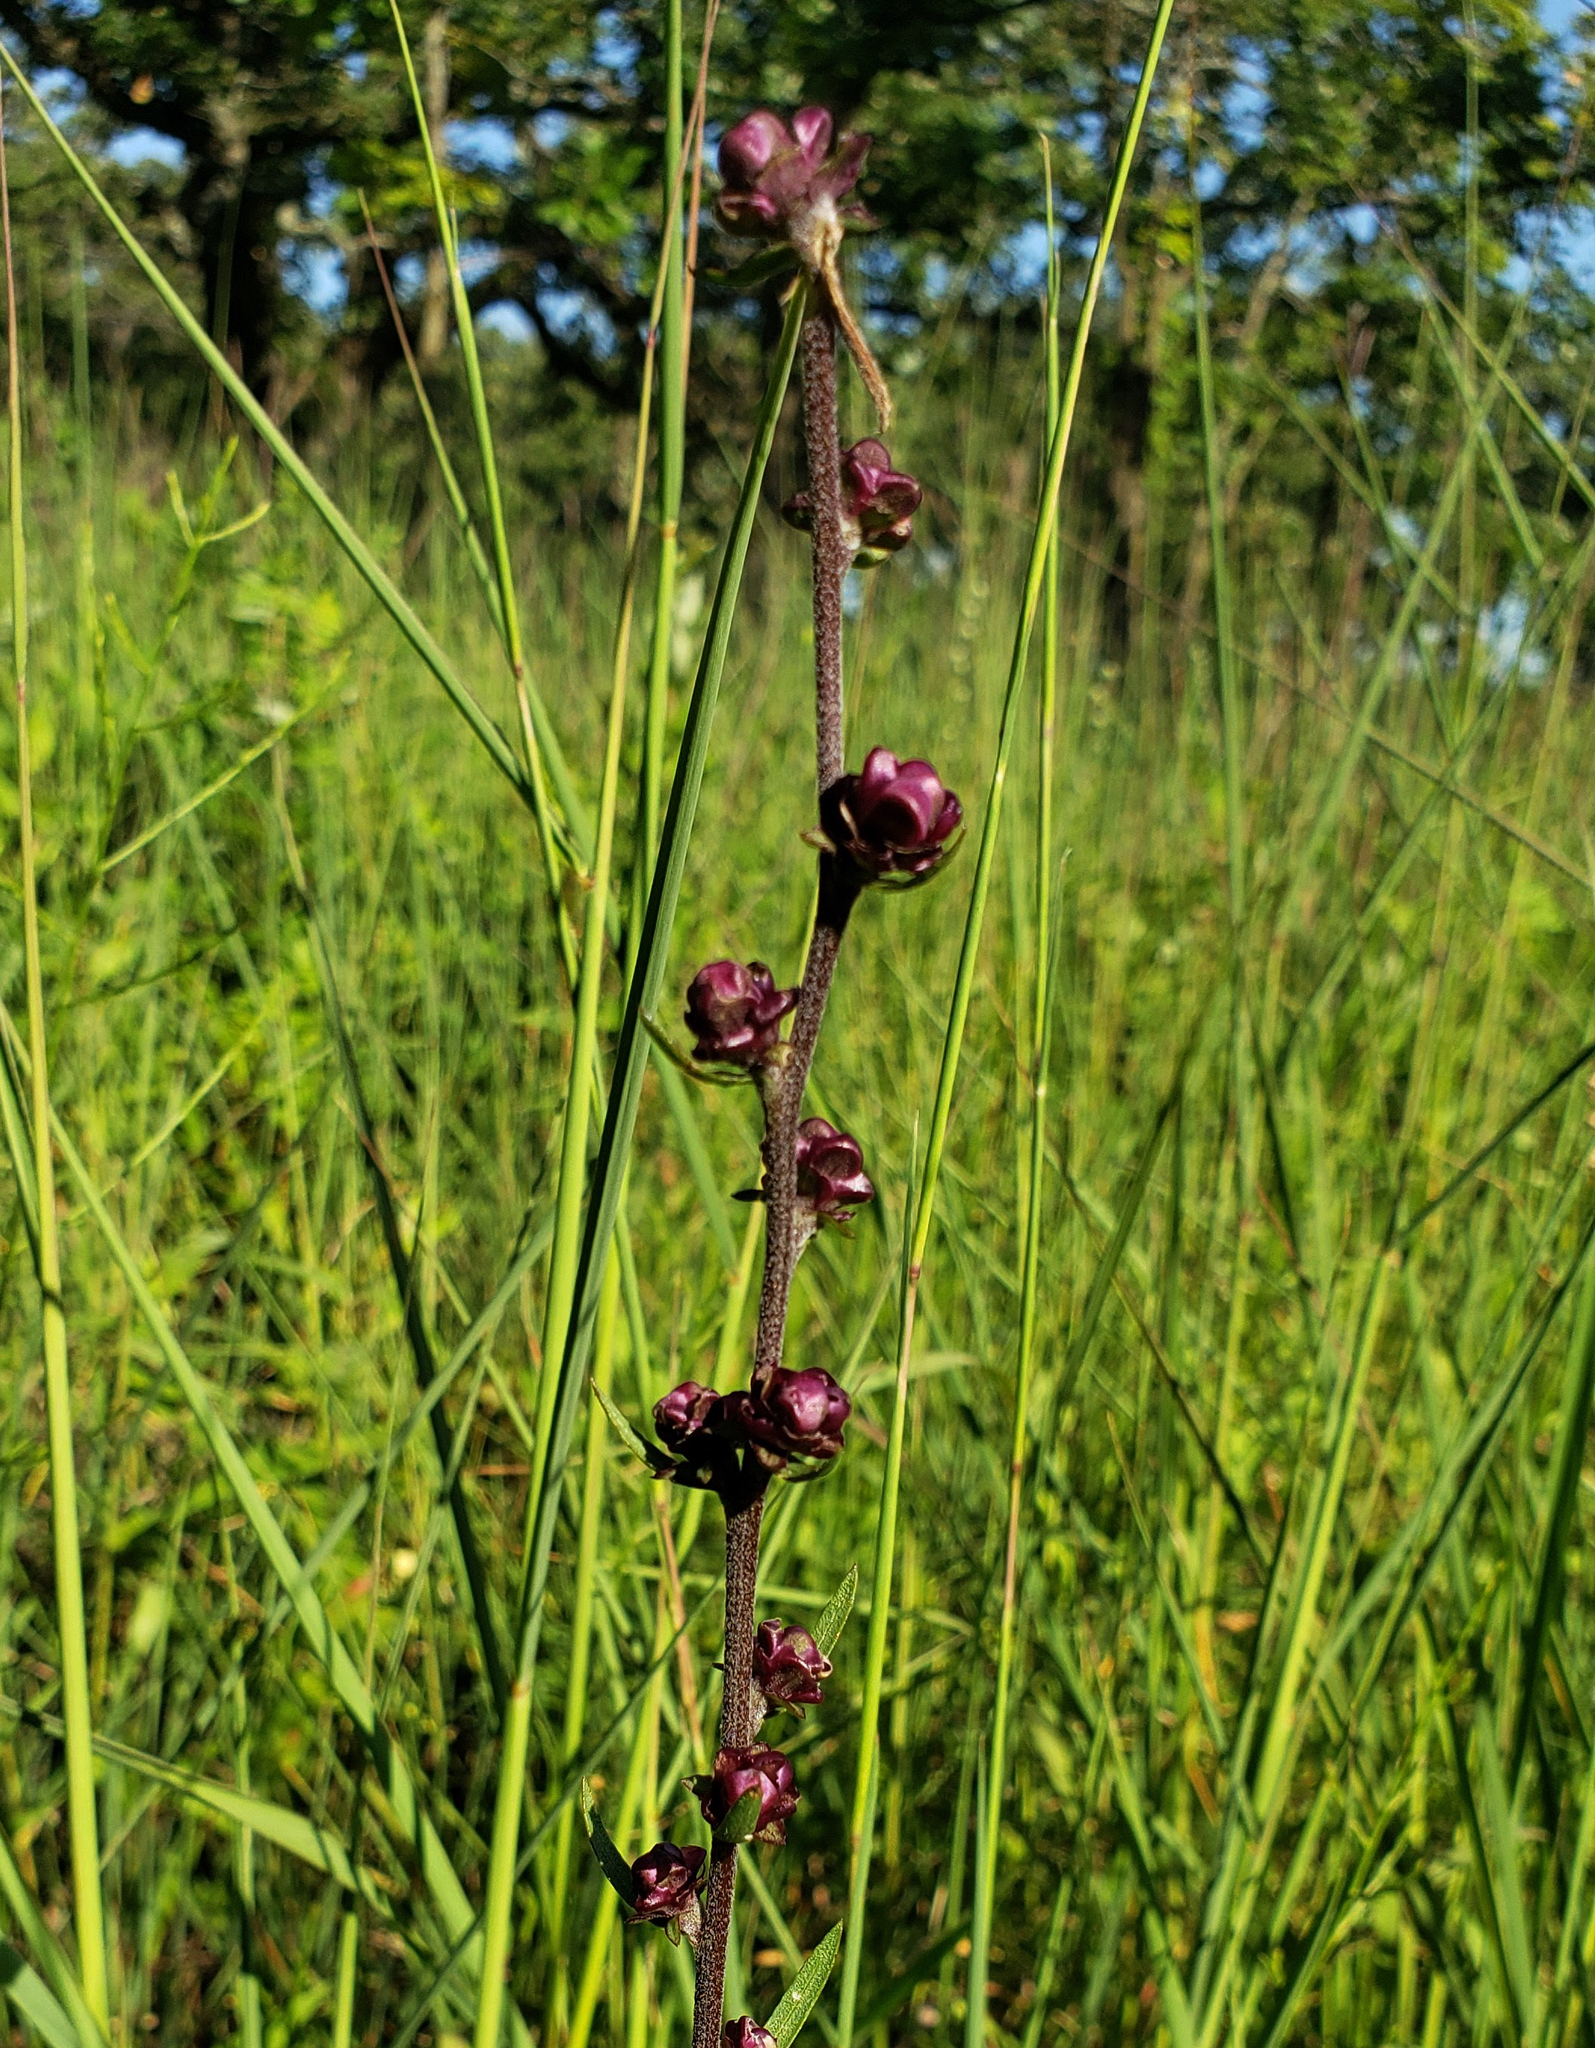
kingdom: Plantae
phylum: Tracheophyta
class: Magnoliopsida
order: Asterales
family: Asteraceae
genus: Liatris
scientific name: Liatris aspera
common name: Lacerate blazing-star
